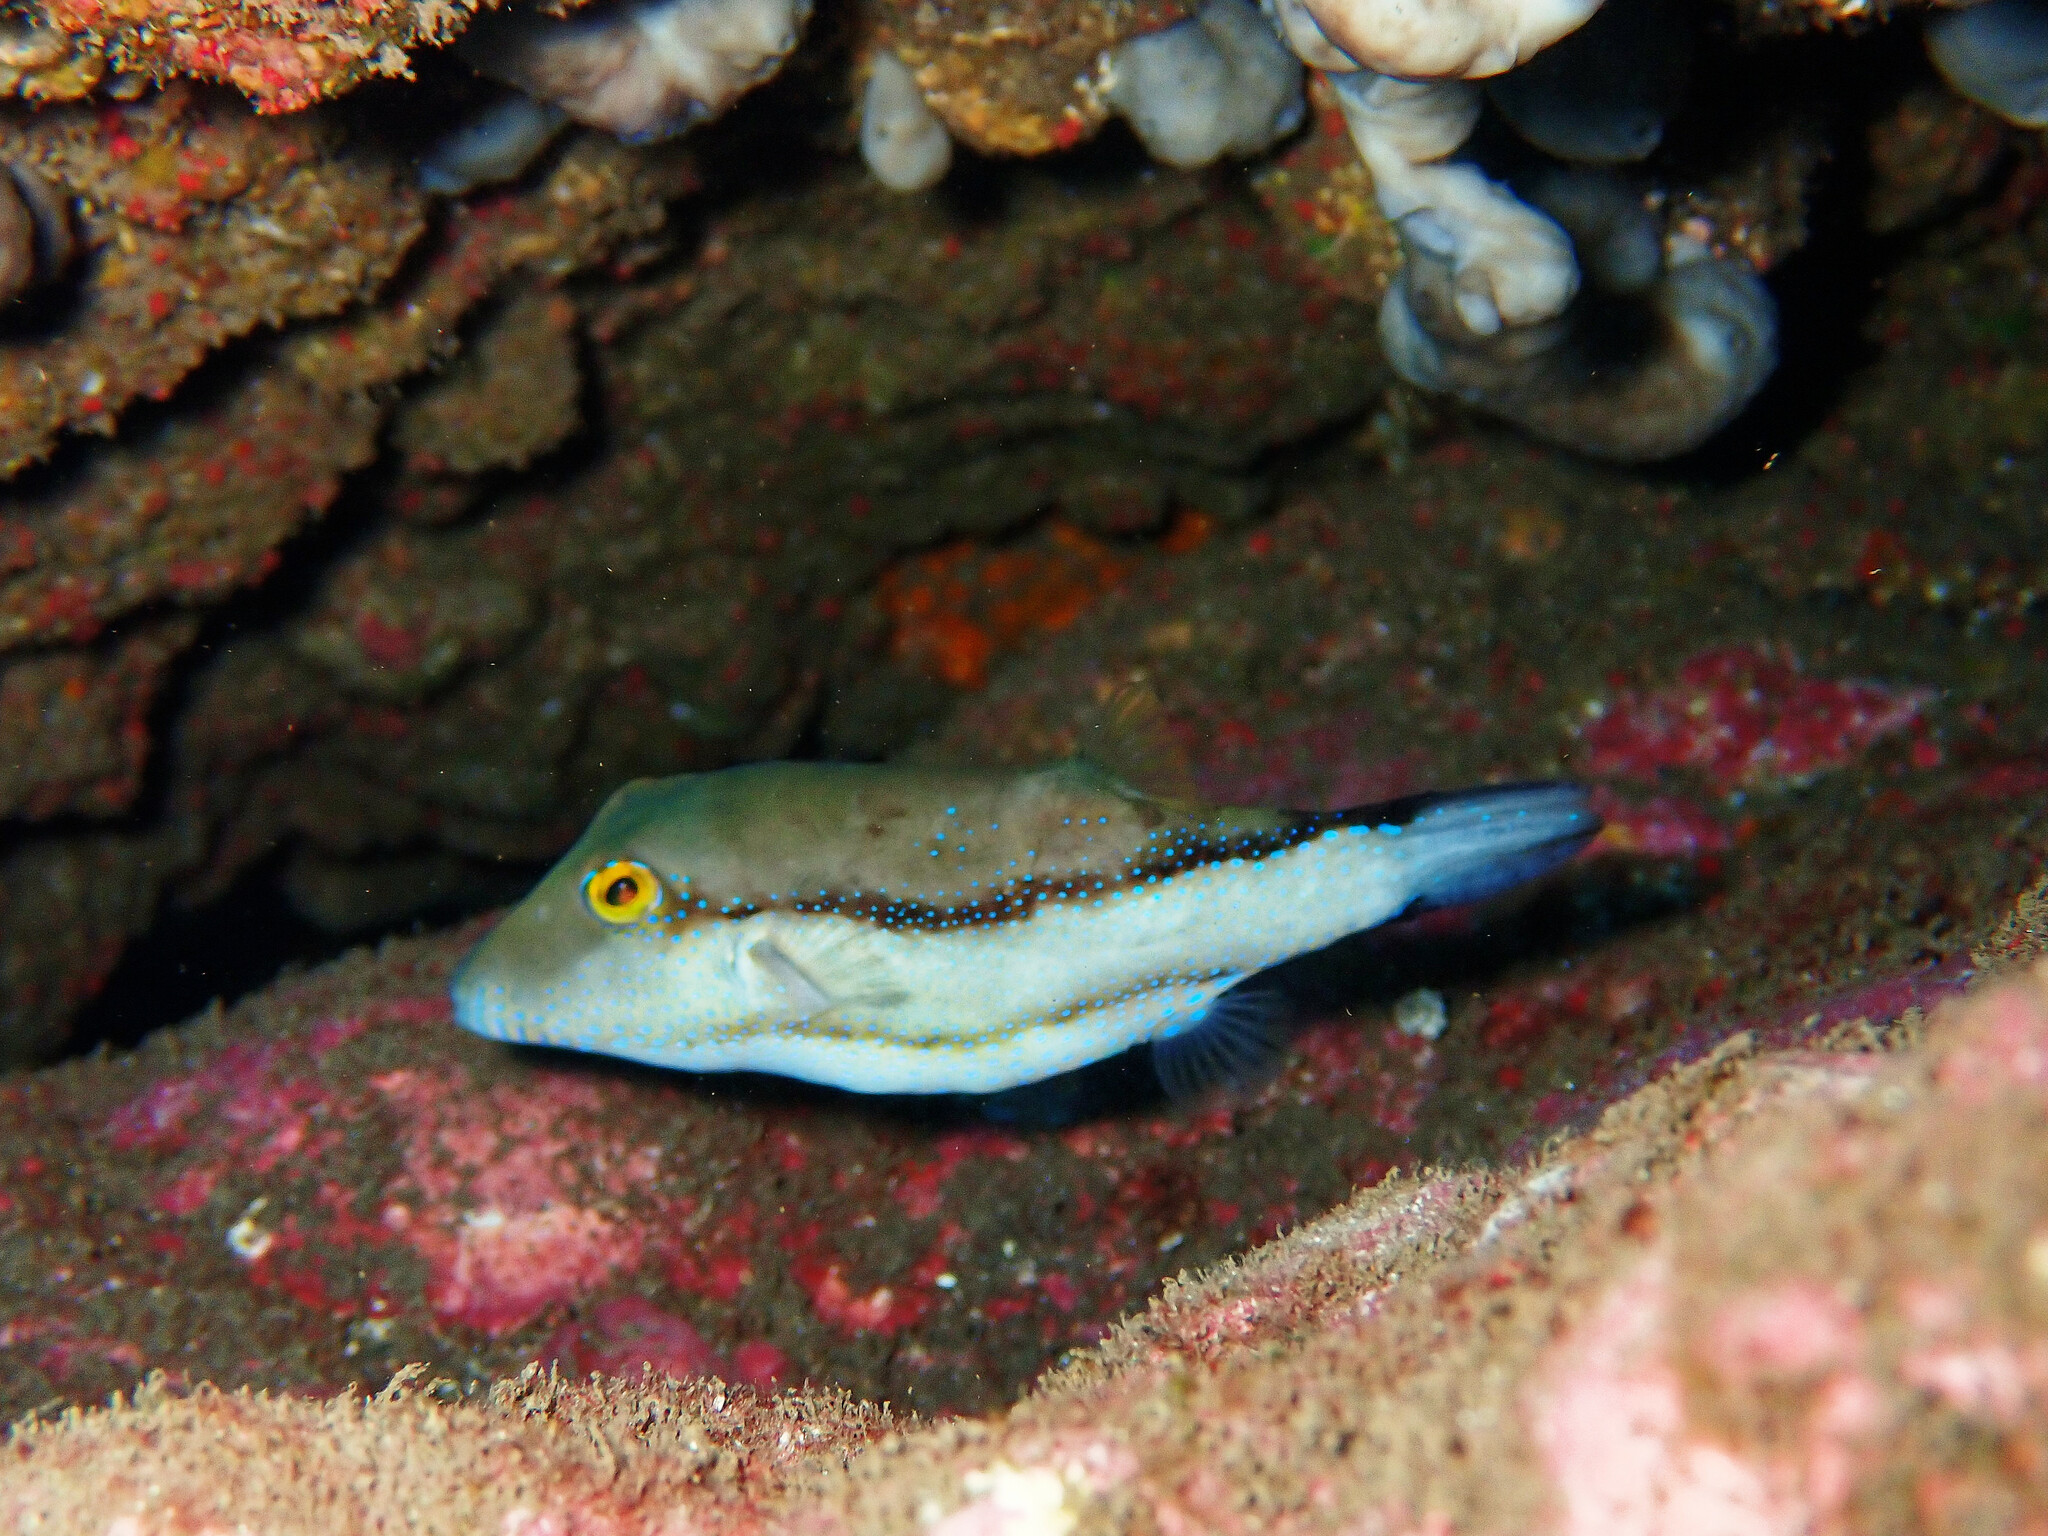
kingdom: Animalia
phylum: Chordata
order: Tetraodontiformes
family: Tetraodontidae
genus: Canthigaster
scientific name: Canthigaster capistrata
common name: Macaronesian sharpnose-puffer
